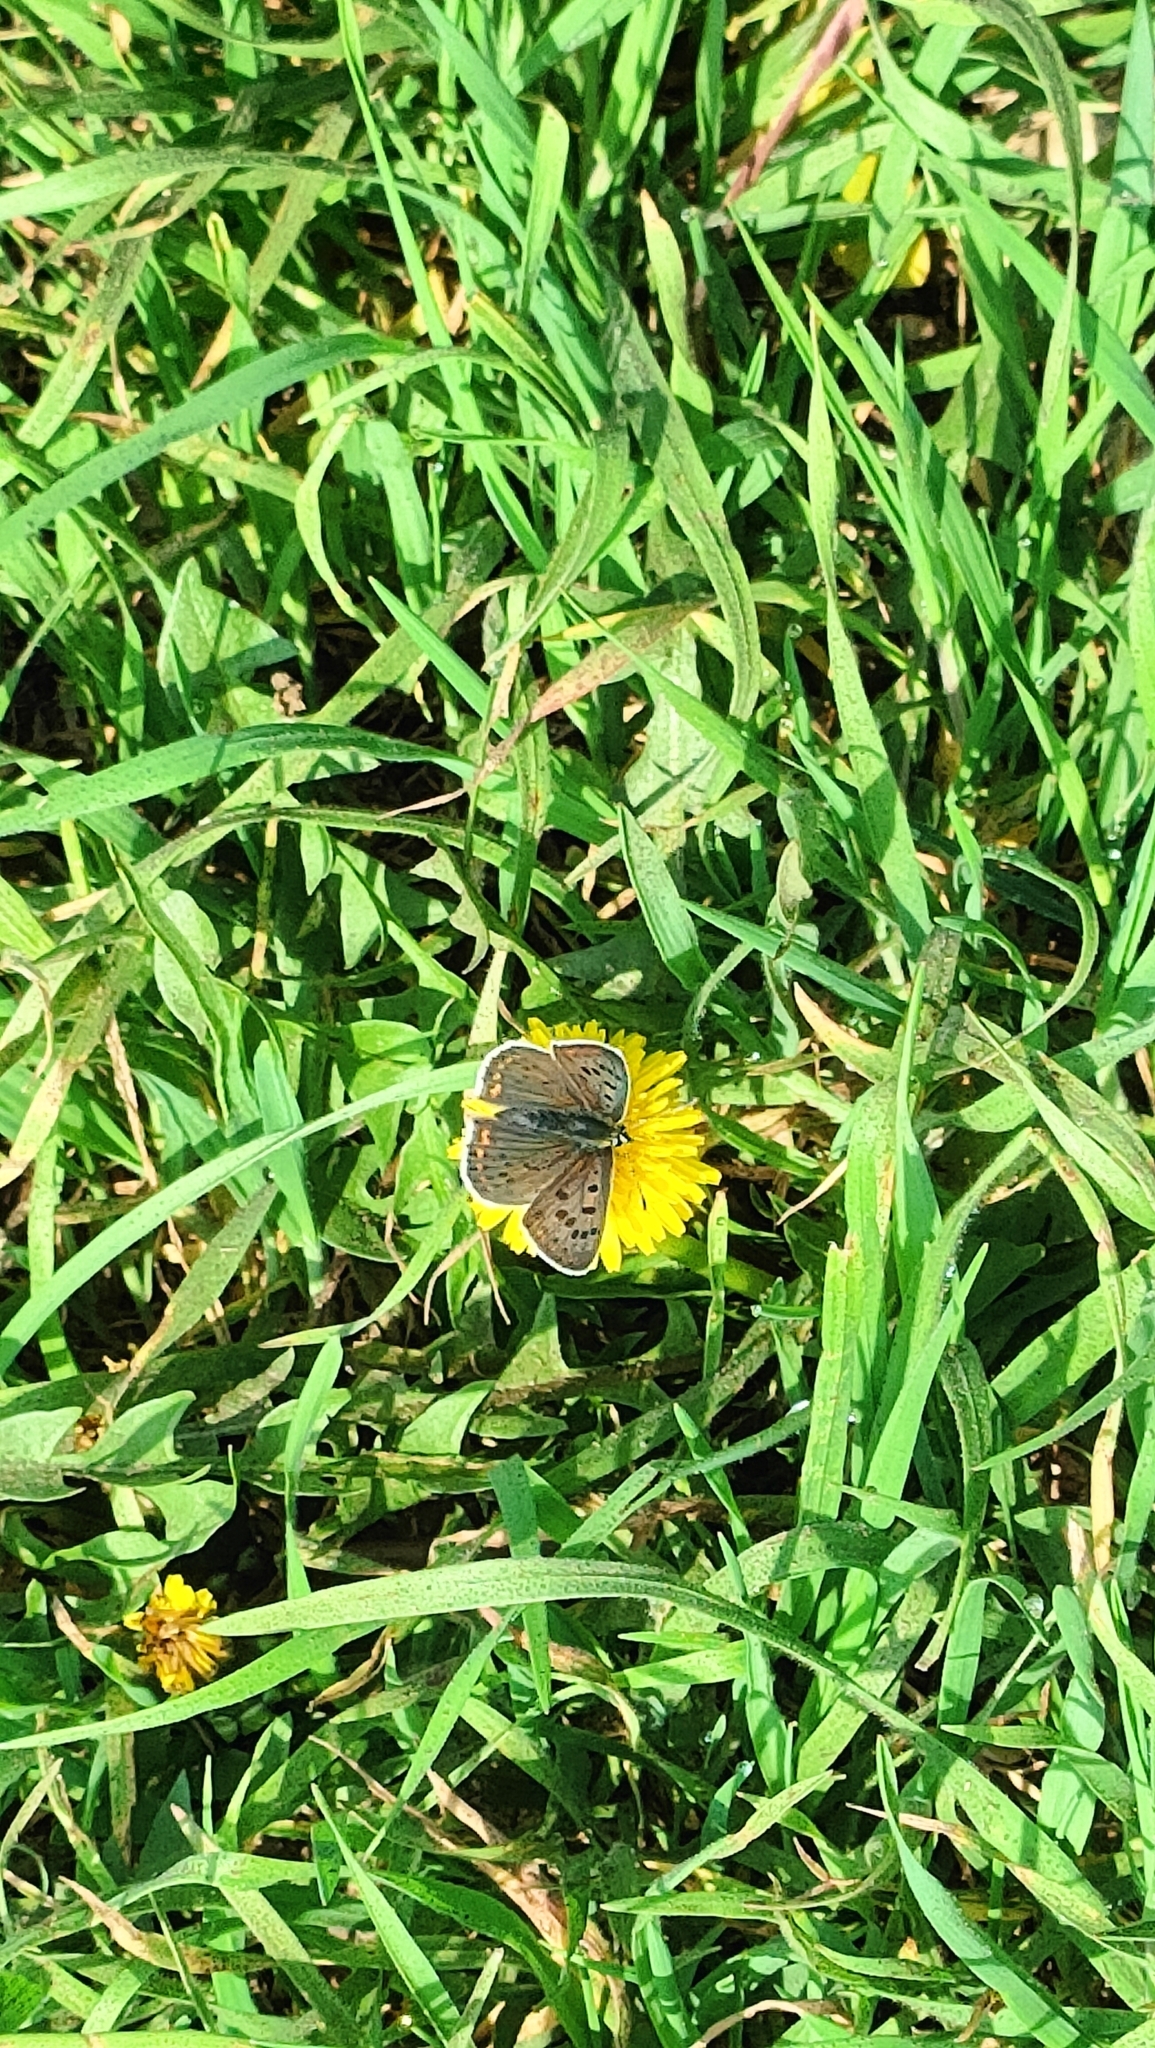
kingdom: Animalia
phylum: Arthropoda
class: Insecta
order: Lepidoptera
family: Lycaenidae
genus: Loweia
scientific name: Loweia tityrus
